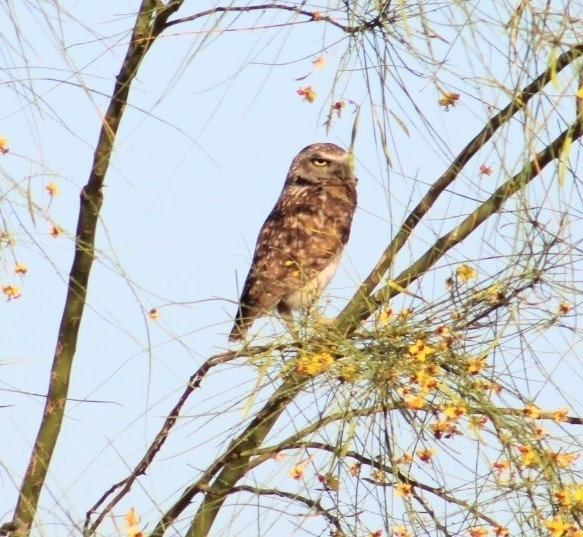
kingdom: Animalia
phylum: Chordata
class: Aves
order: Strigiformes
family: Strigidae
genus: Athene
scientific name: Athene cunicularia
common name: Burrowing owl
